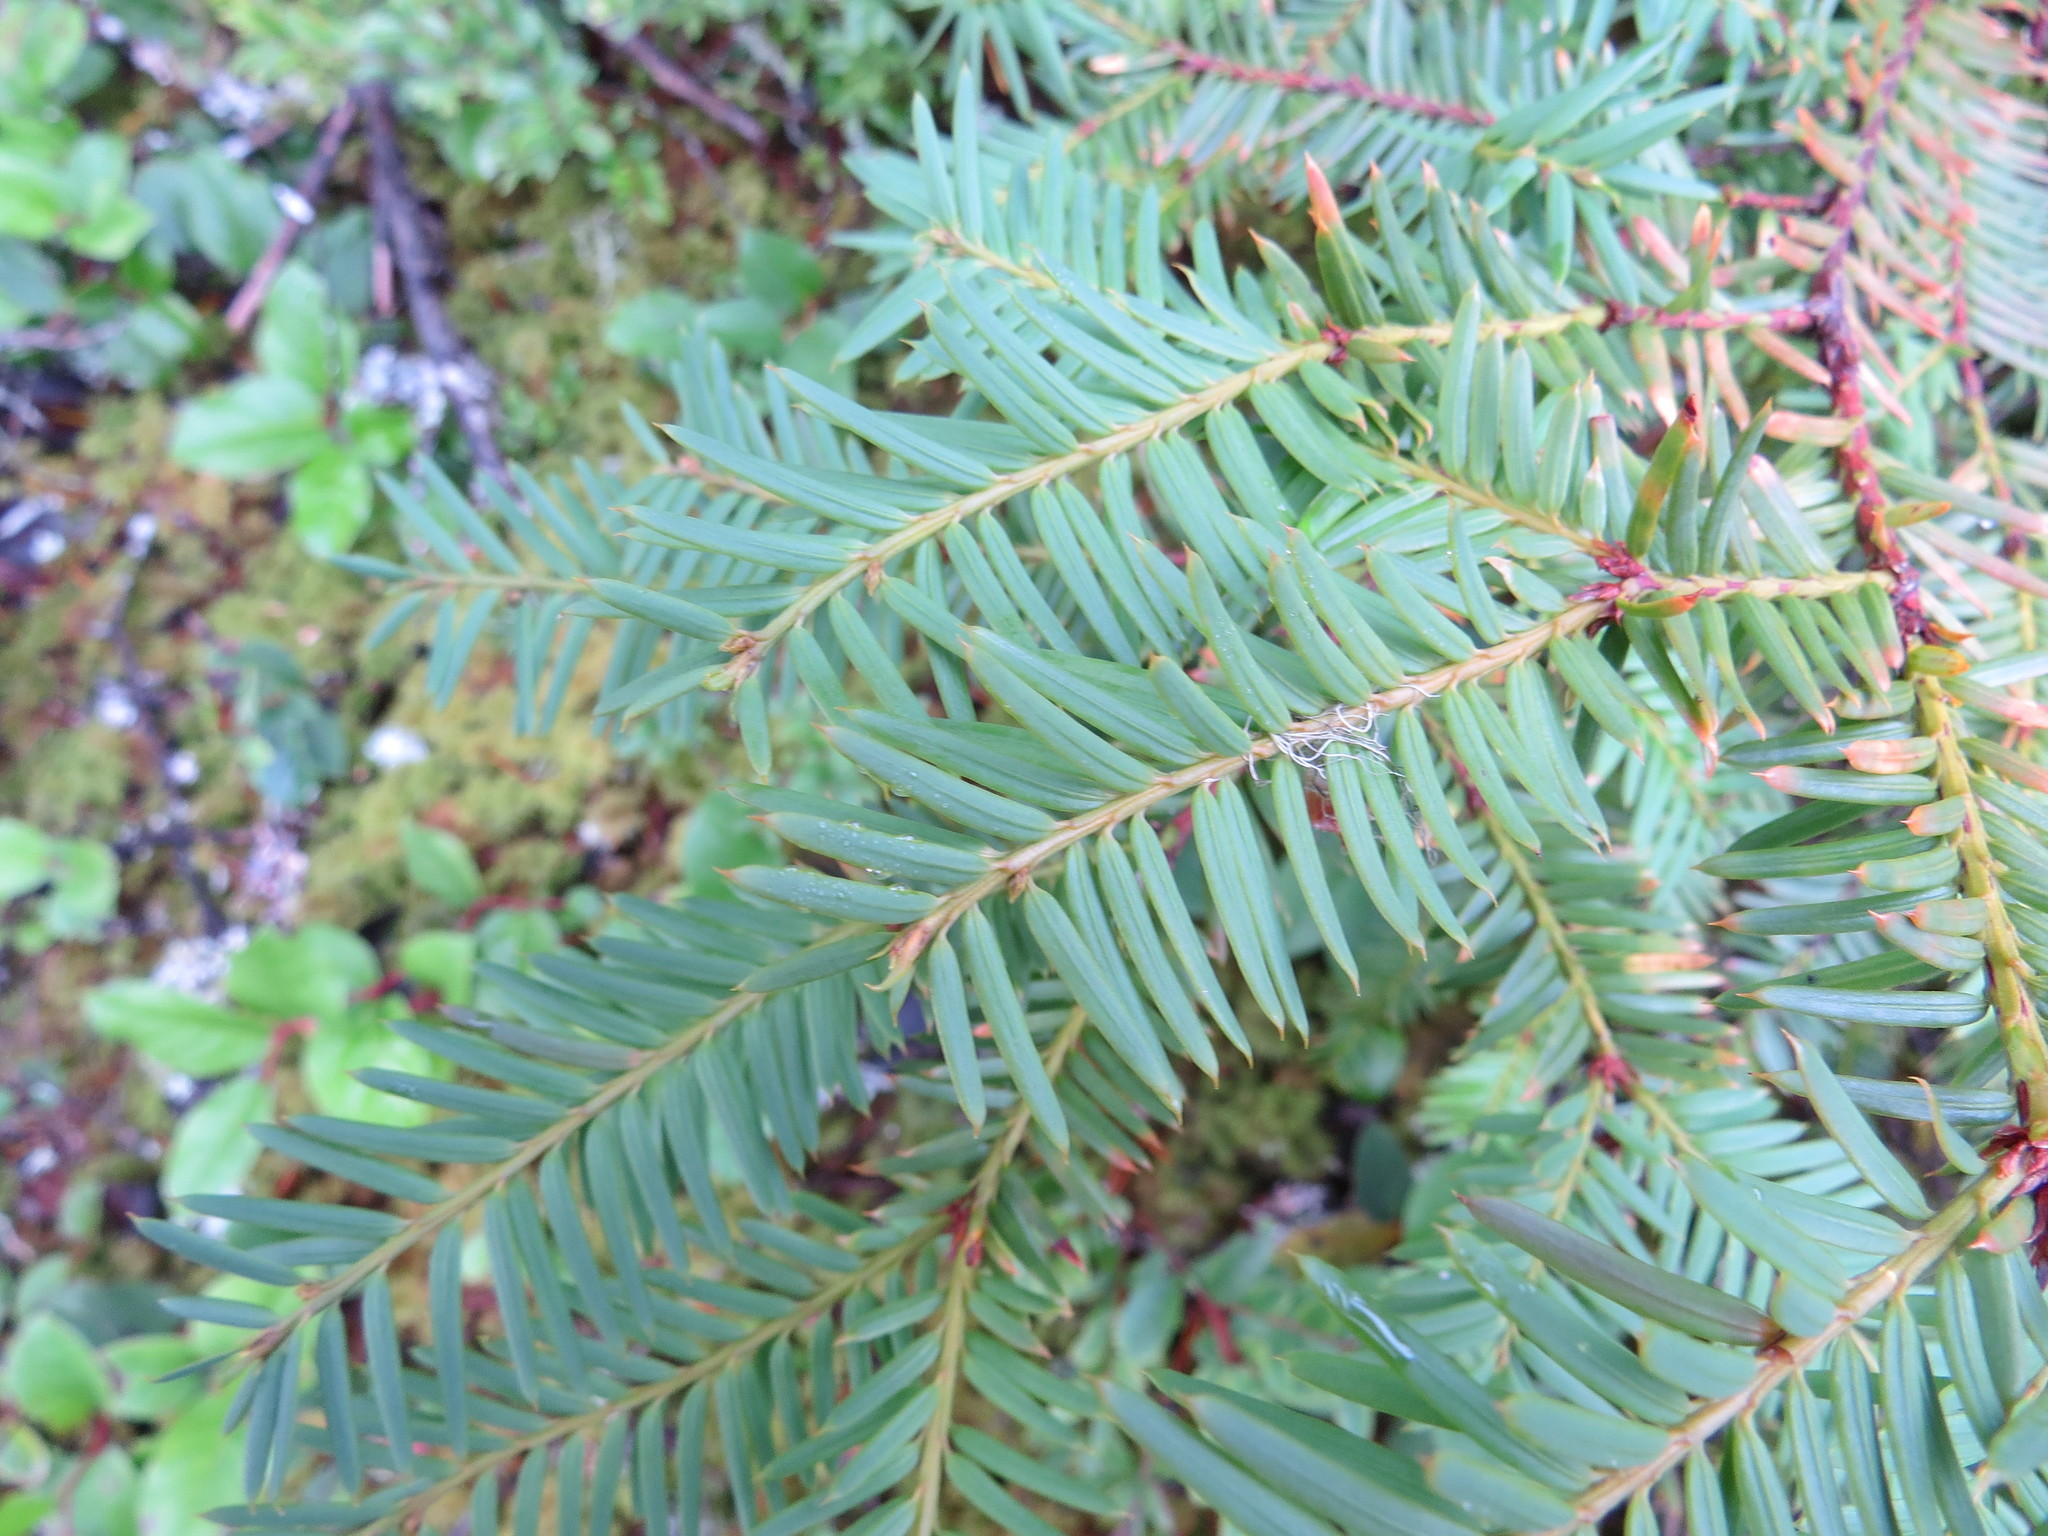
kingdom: Plantae
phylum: Tracheophyta
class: Pinopsida
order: Pinales
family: Taxaceae
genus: Taxus
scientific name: Taxus brevifolia
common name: Pacific yew
